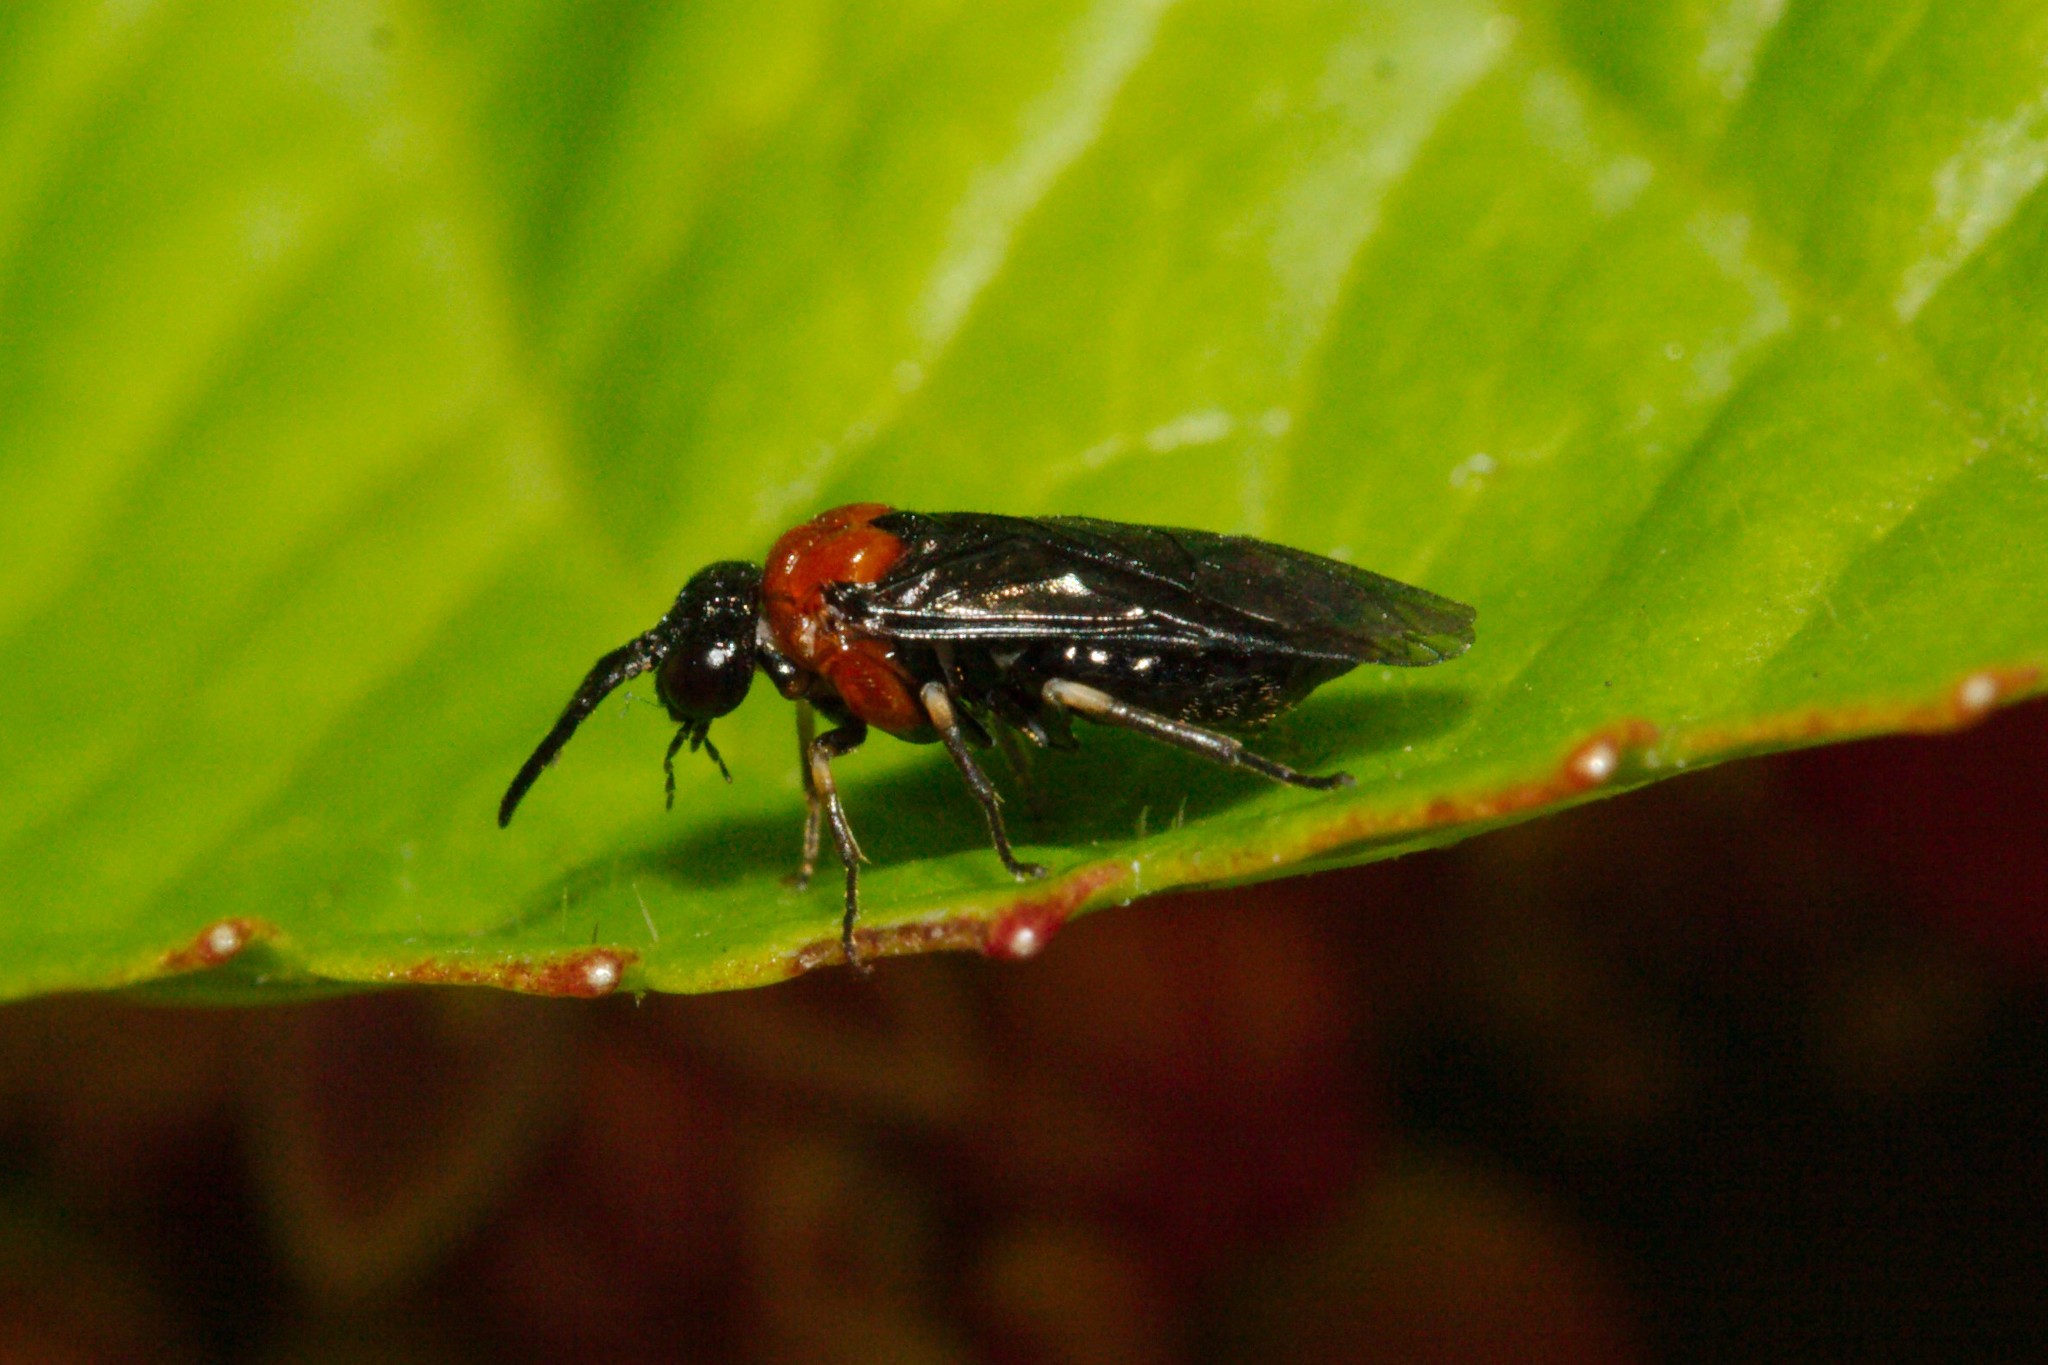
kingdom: Animalia
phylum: Arthropoda
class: Insecta
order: Hymenoptera
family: Tenthredinidae
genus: Eutomostethus
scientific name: Eutomostethus ephippium
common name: Tenthredid wasp
